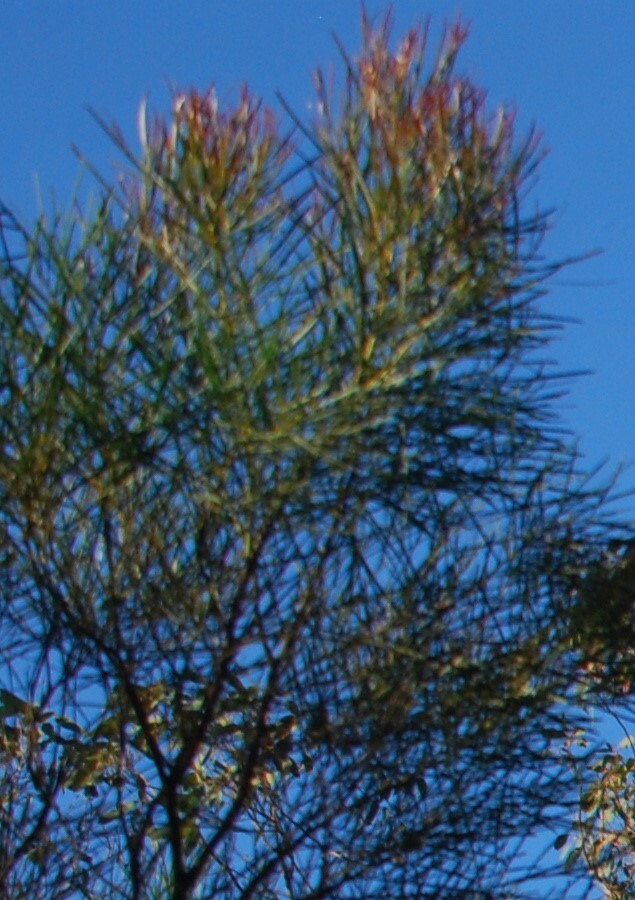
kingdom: Plantae
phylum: Tracheophyta
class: Magnoliopsida
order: Fabales
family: Fabaceae
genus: Jacksonia
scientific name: Jacksonia scoparia
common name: Dogwood
